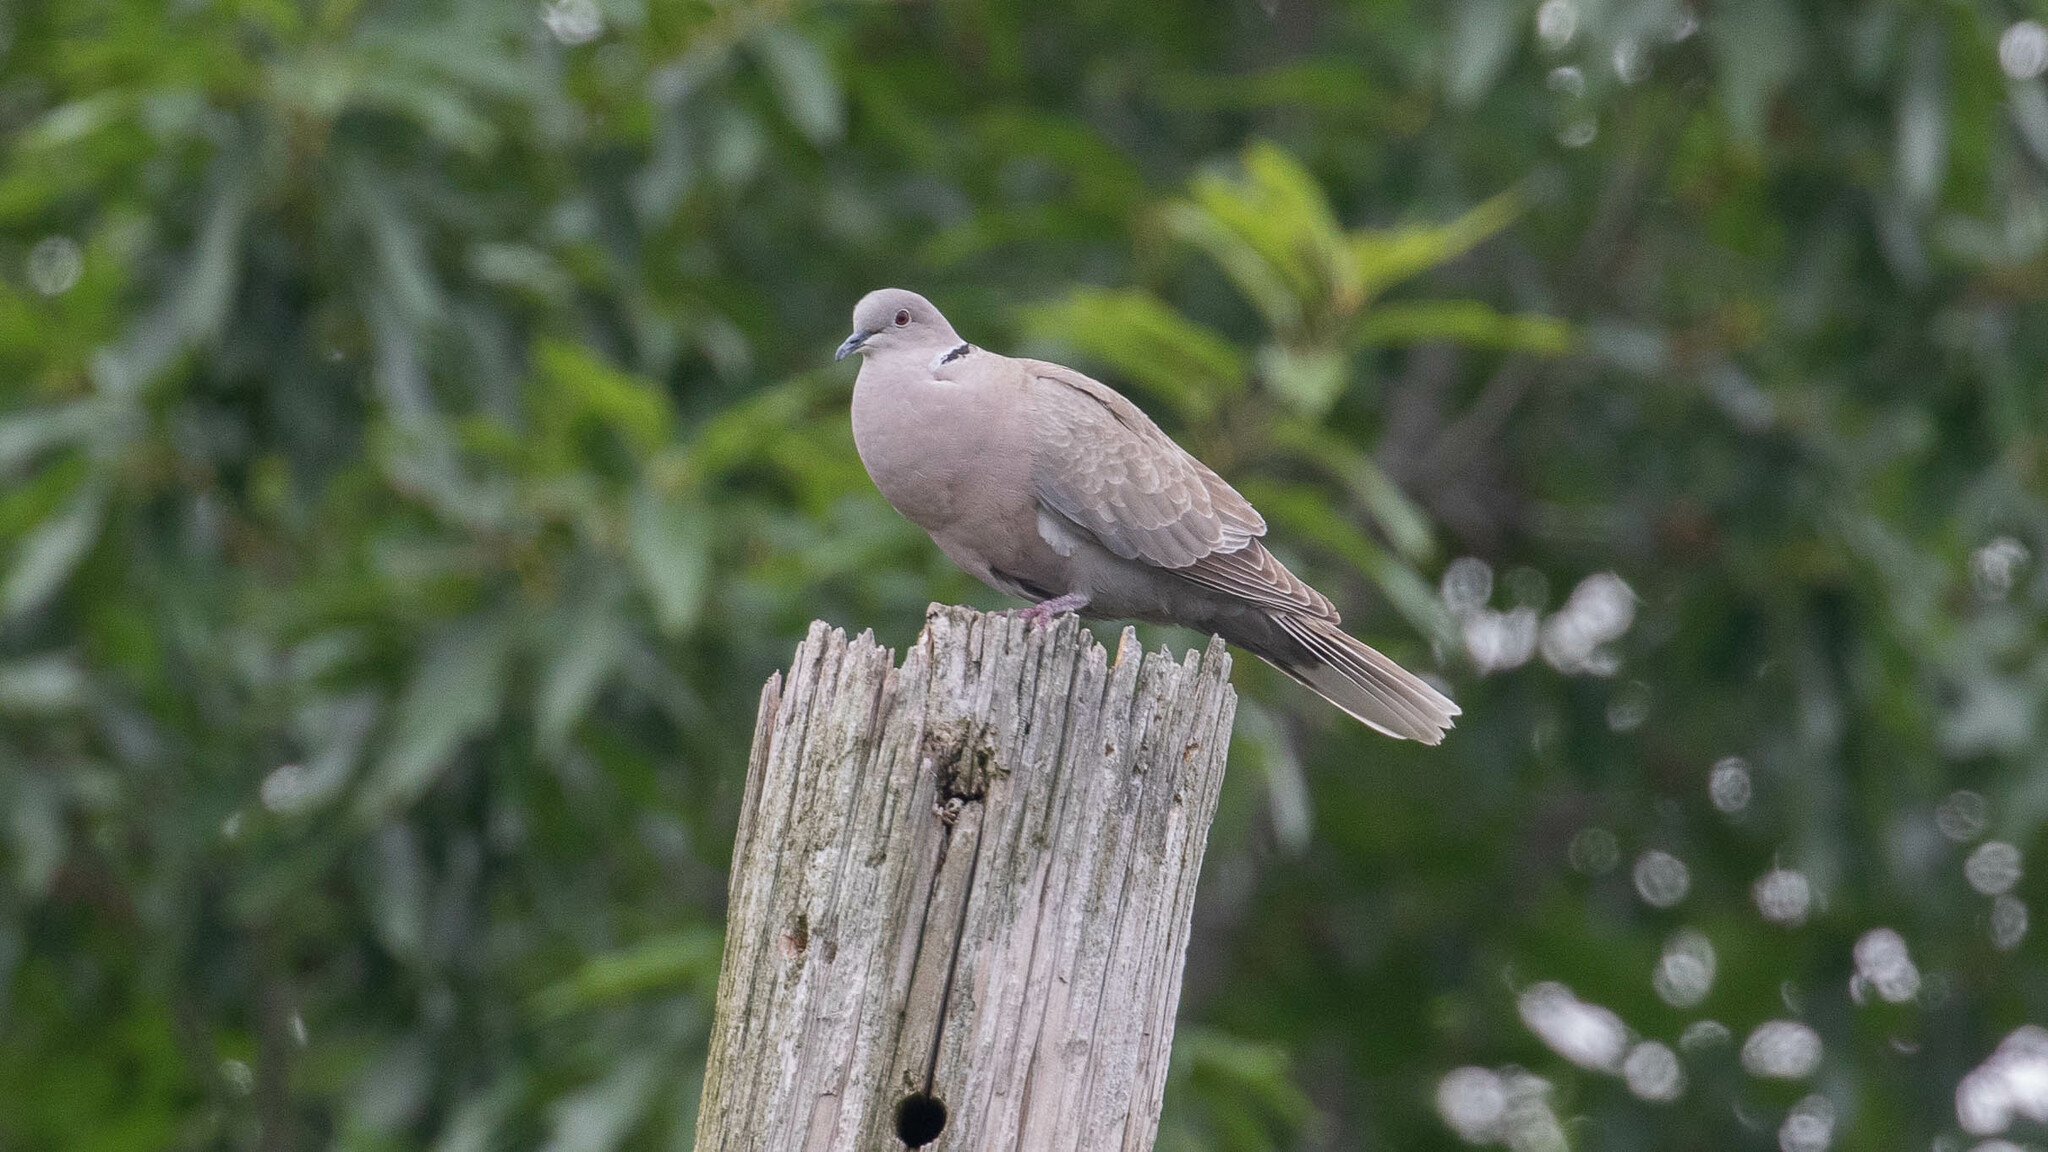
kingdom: Animalia
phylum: Chordata
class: Aves
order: Columbiformes
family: Columbidae
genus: Streptopelia
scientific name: Streptopelia decaocto
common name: Eurasian collared dove
